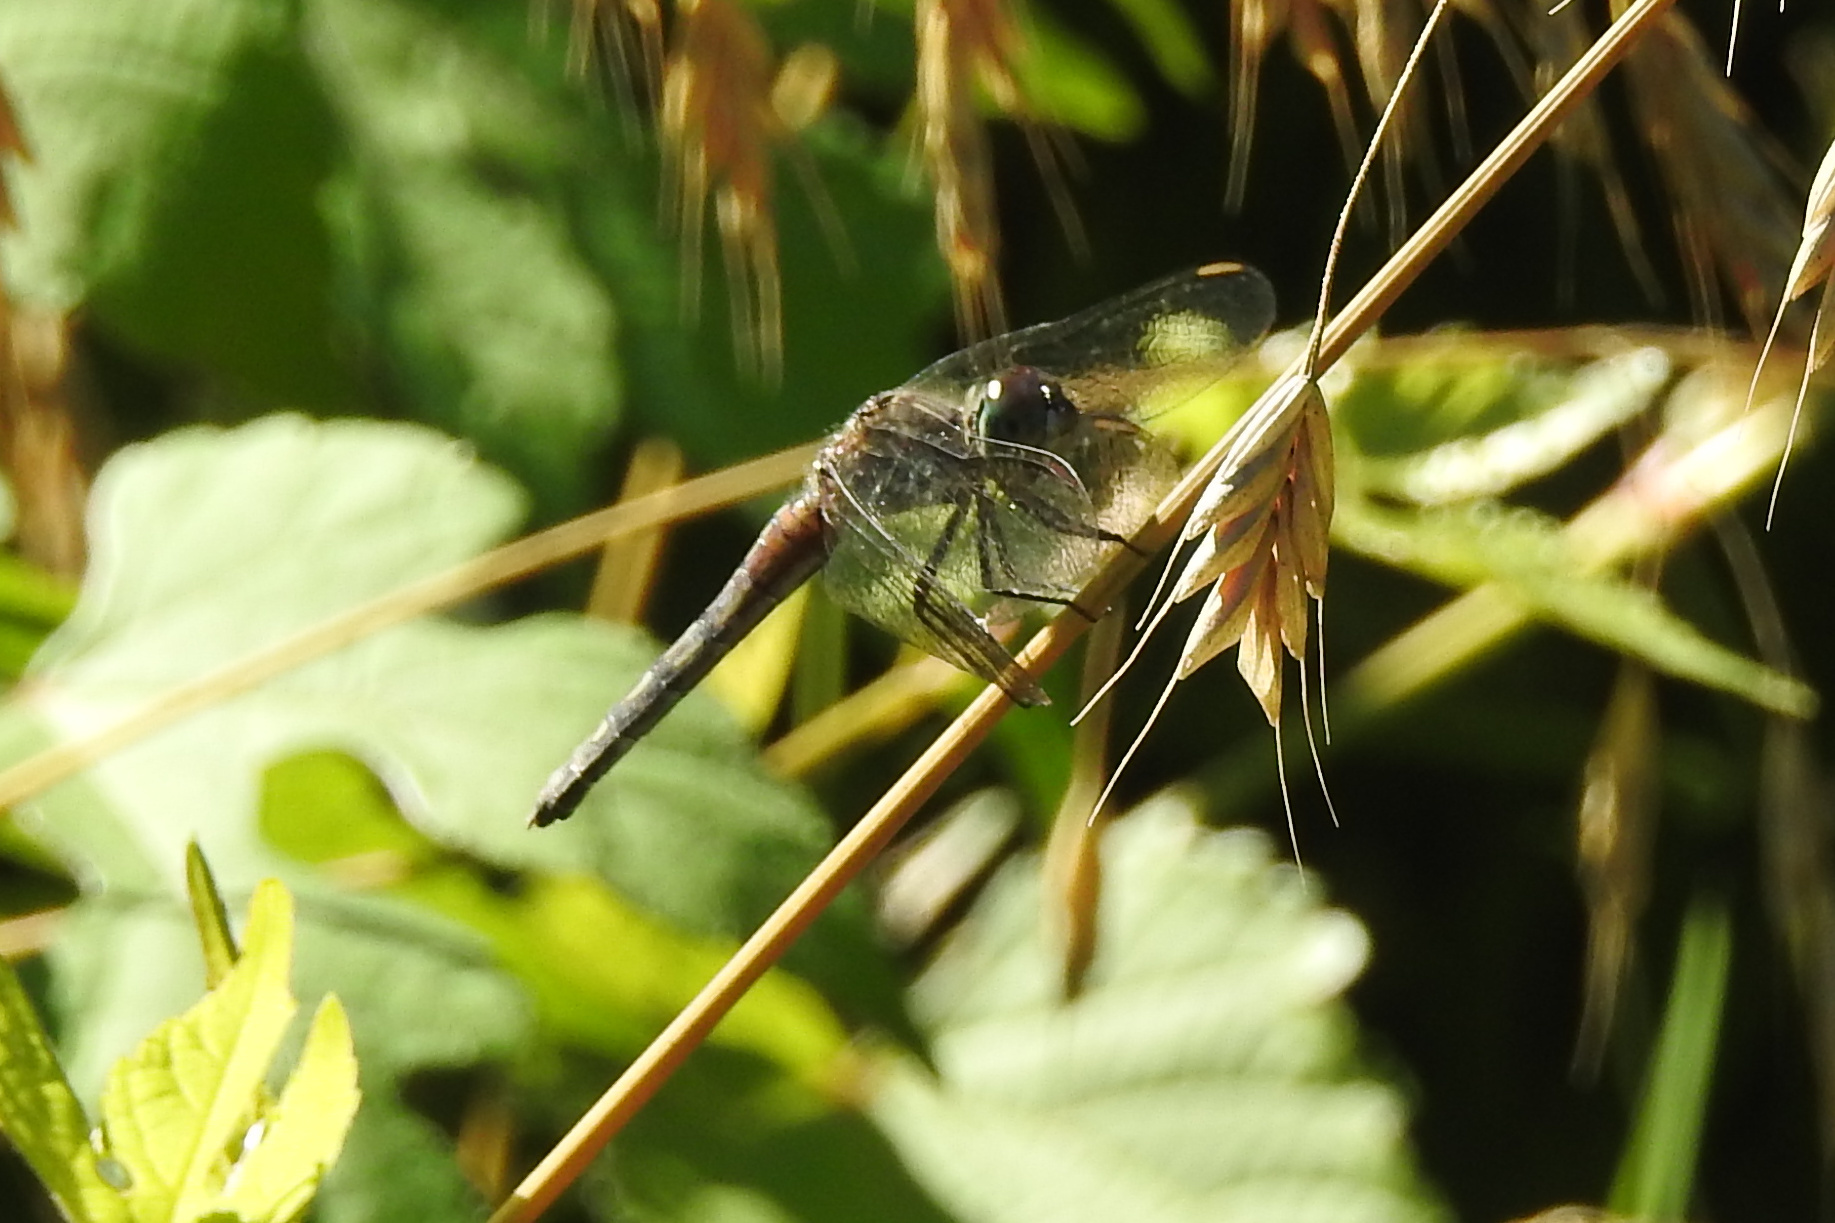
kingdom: Animalia
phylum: Arthropoda
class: Insecta
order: Odonata
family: Libellulidae
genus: Pachydiplax
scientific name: Pachydiplax longipennis
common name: Blue dasher
